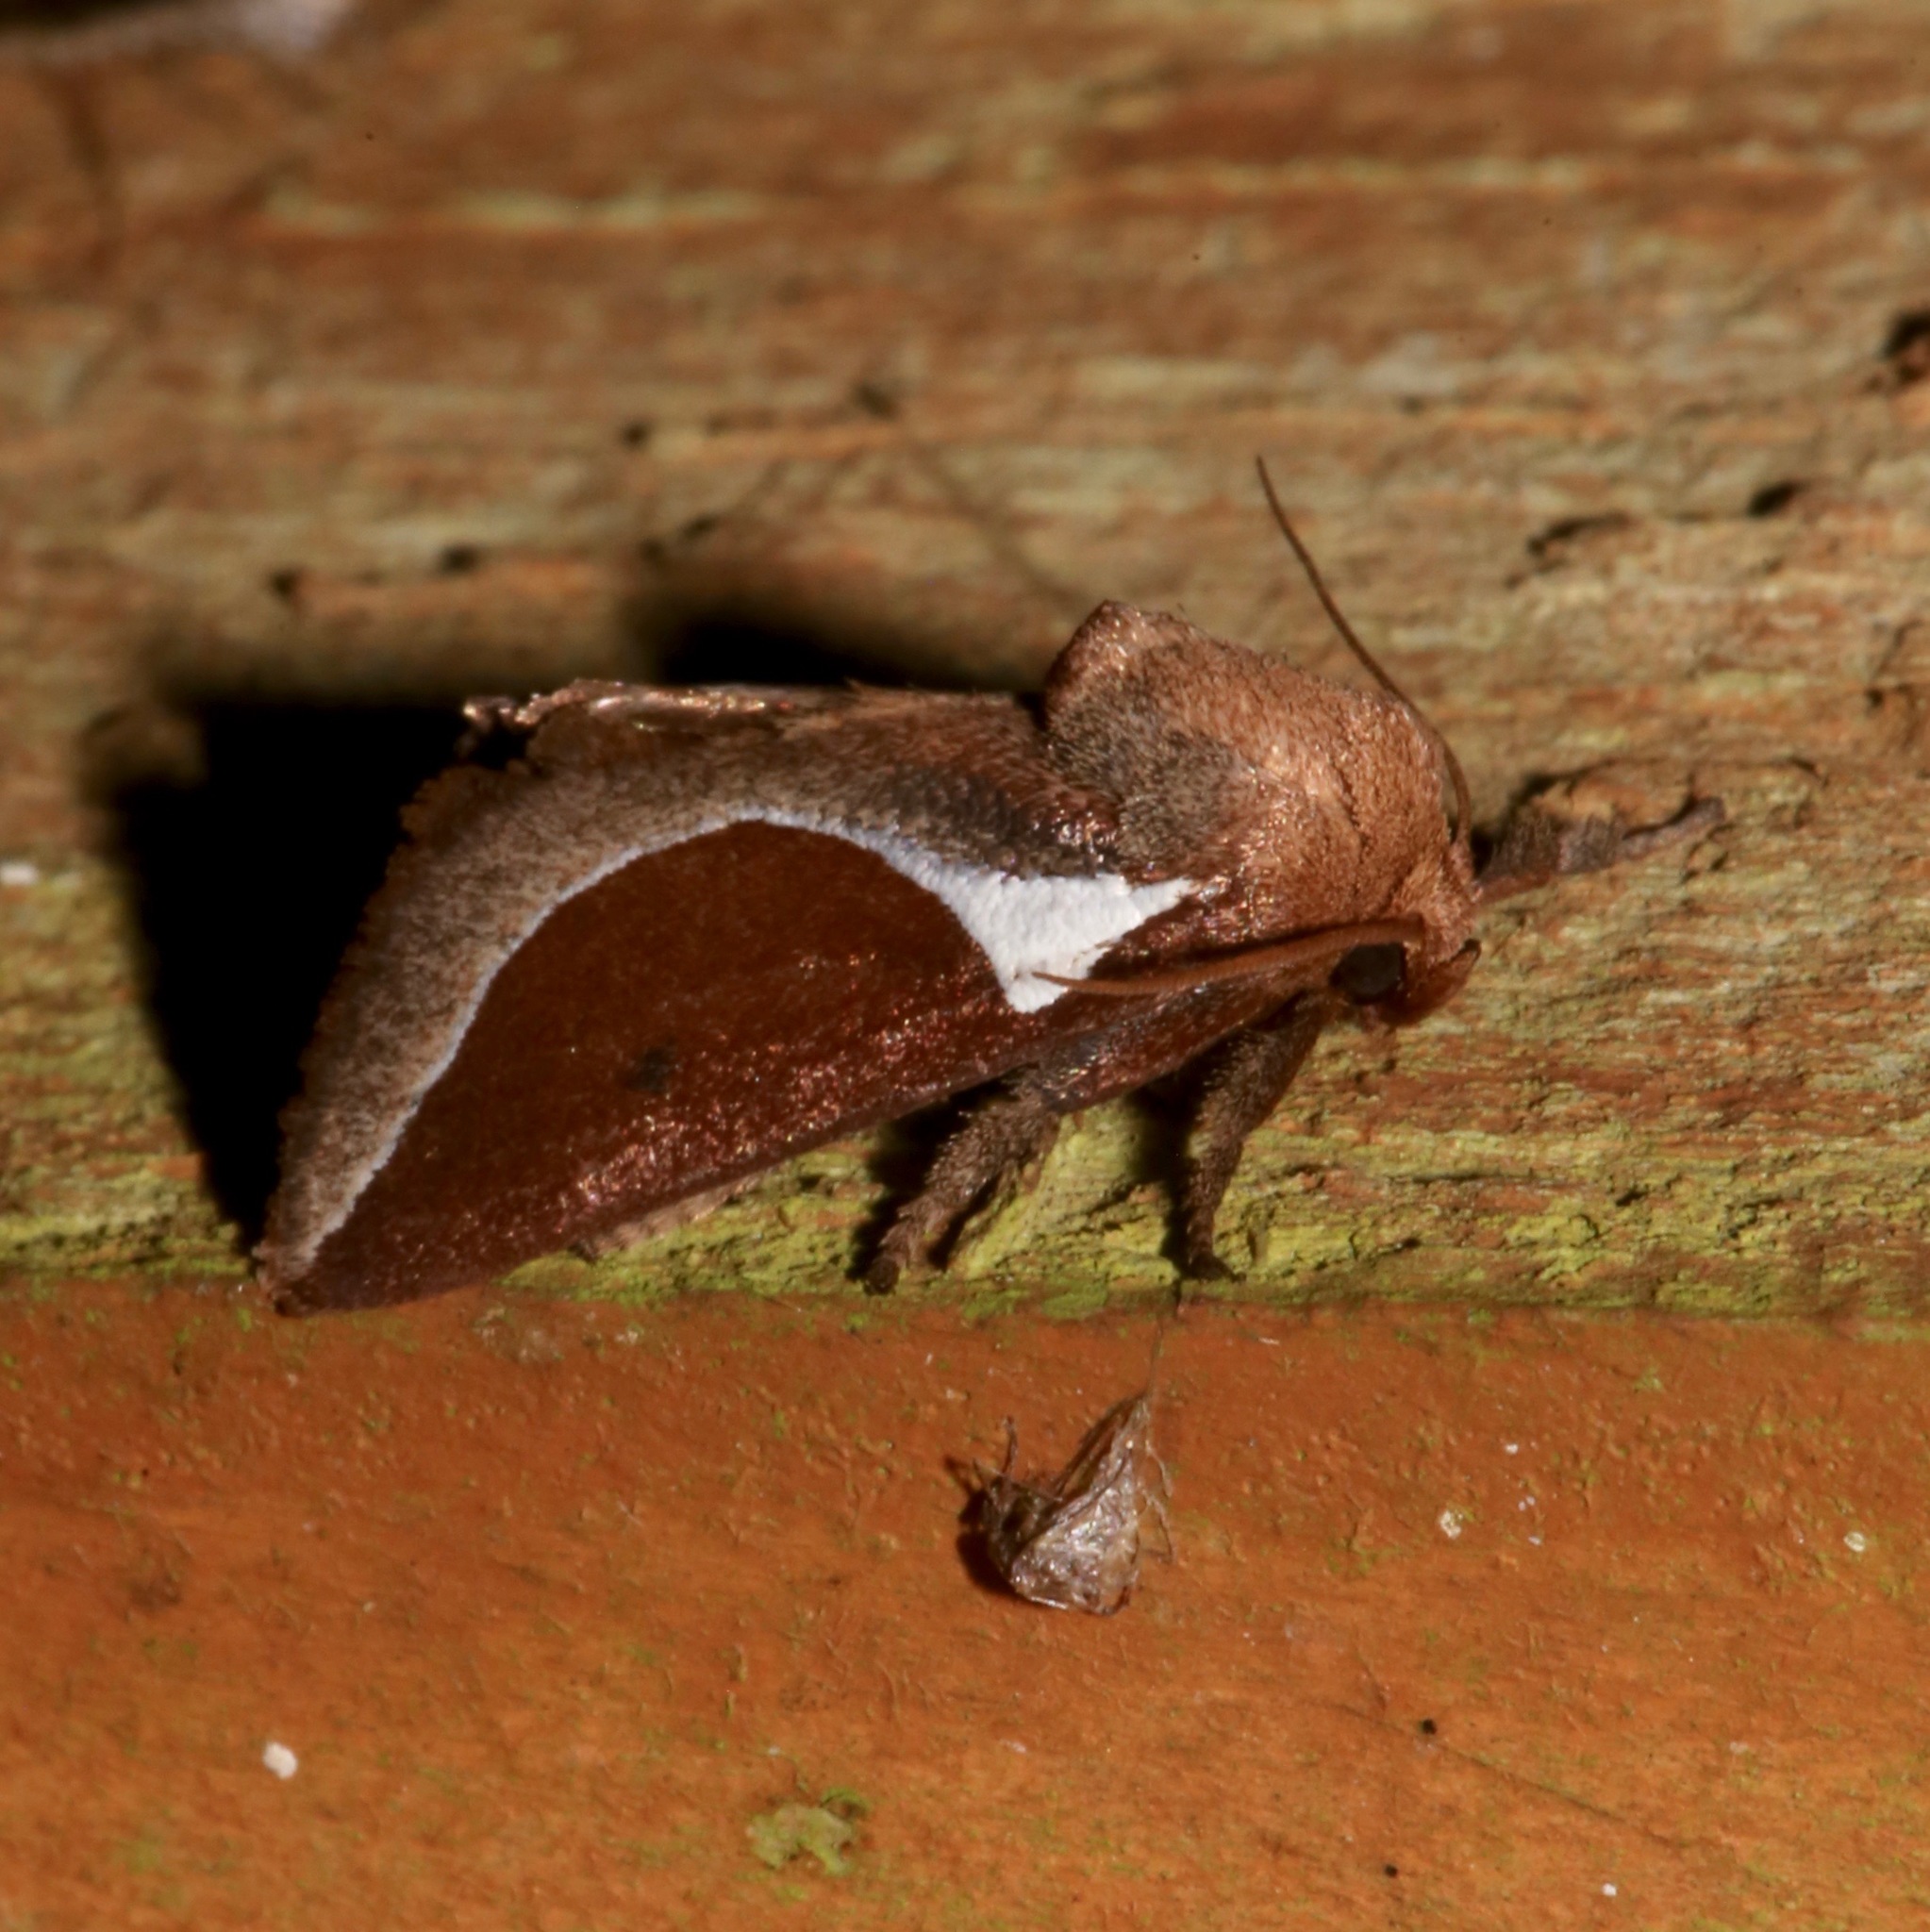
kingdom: Animalia
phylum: Arthropoda
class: Insecta
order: Lepidoptera
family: Limacodidae
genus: Prolimacodes
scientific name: Prolimacodes badia
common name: Skiff moth
